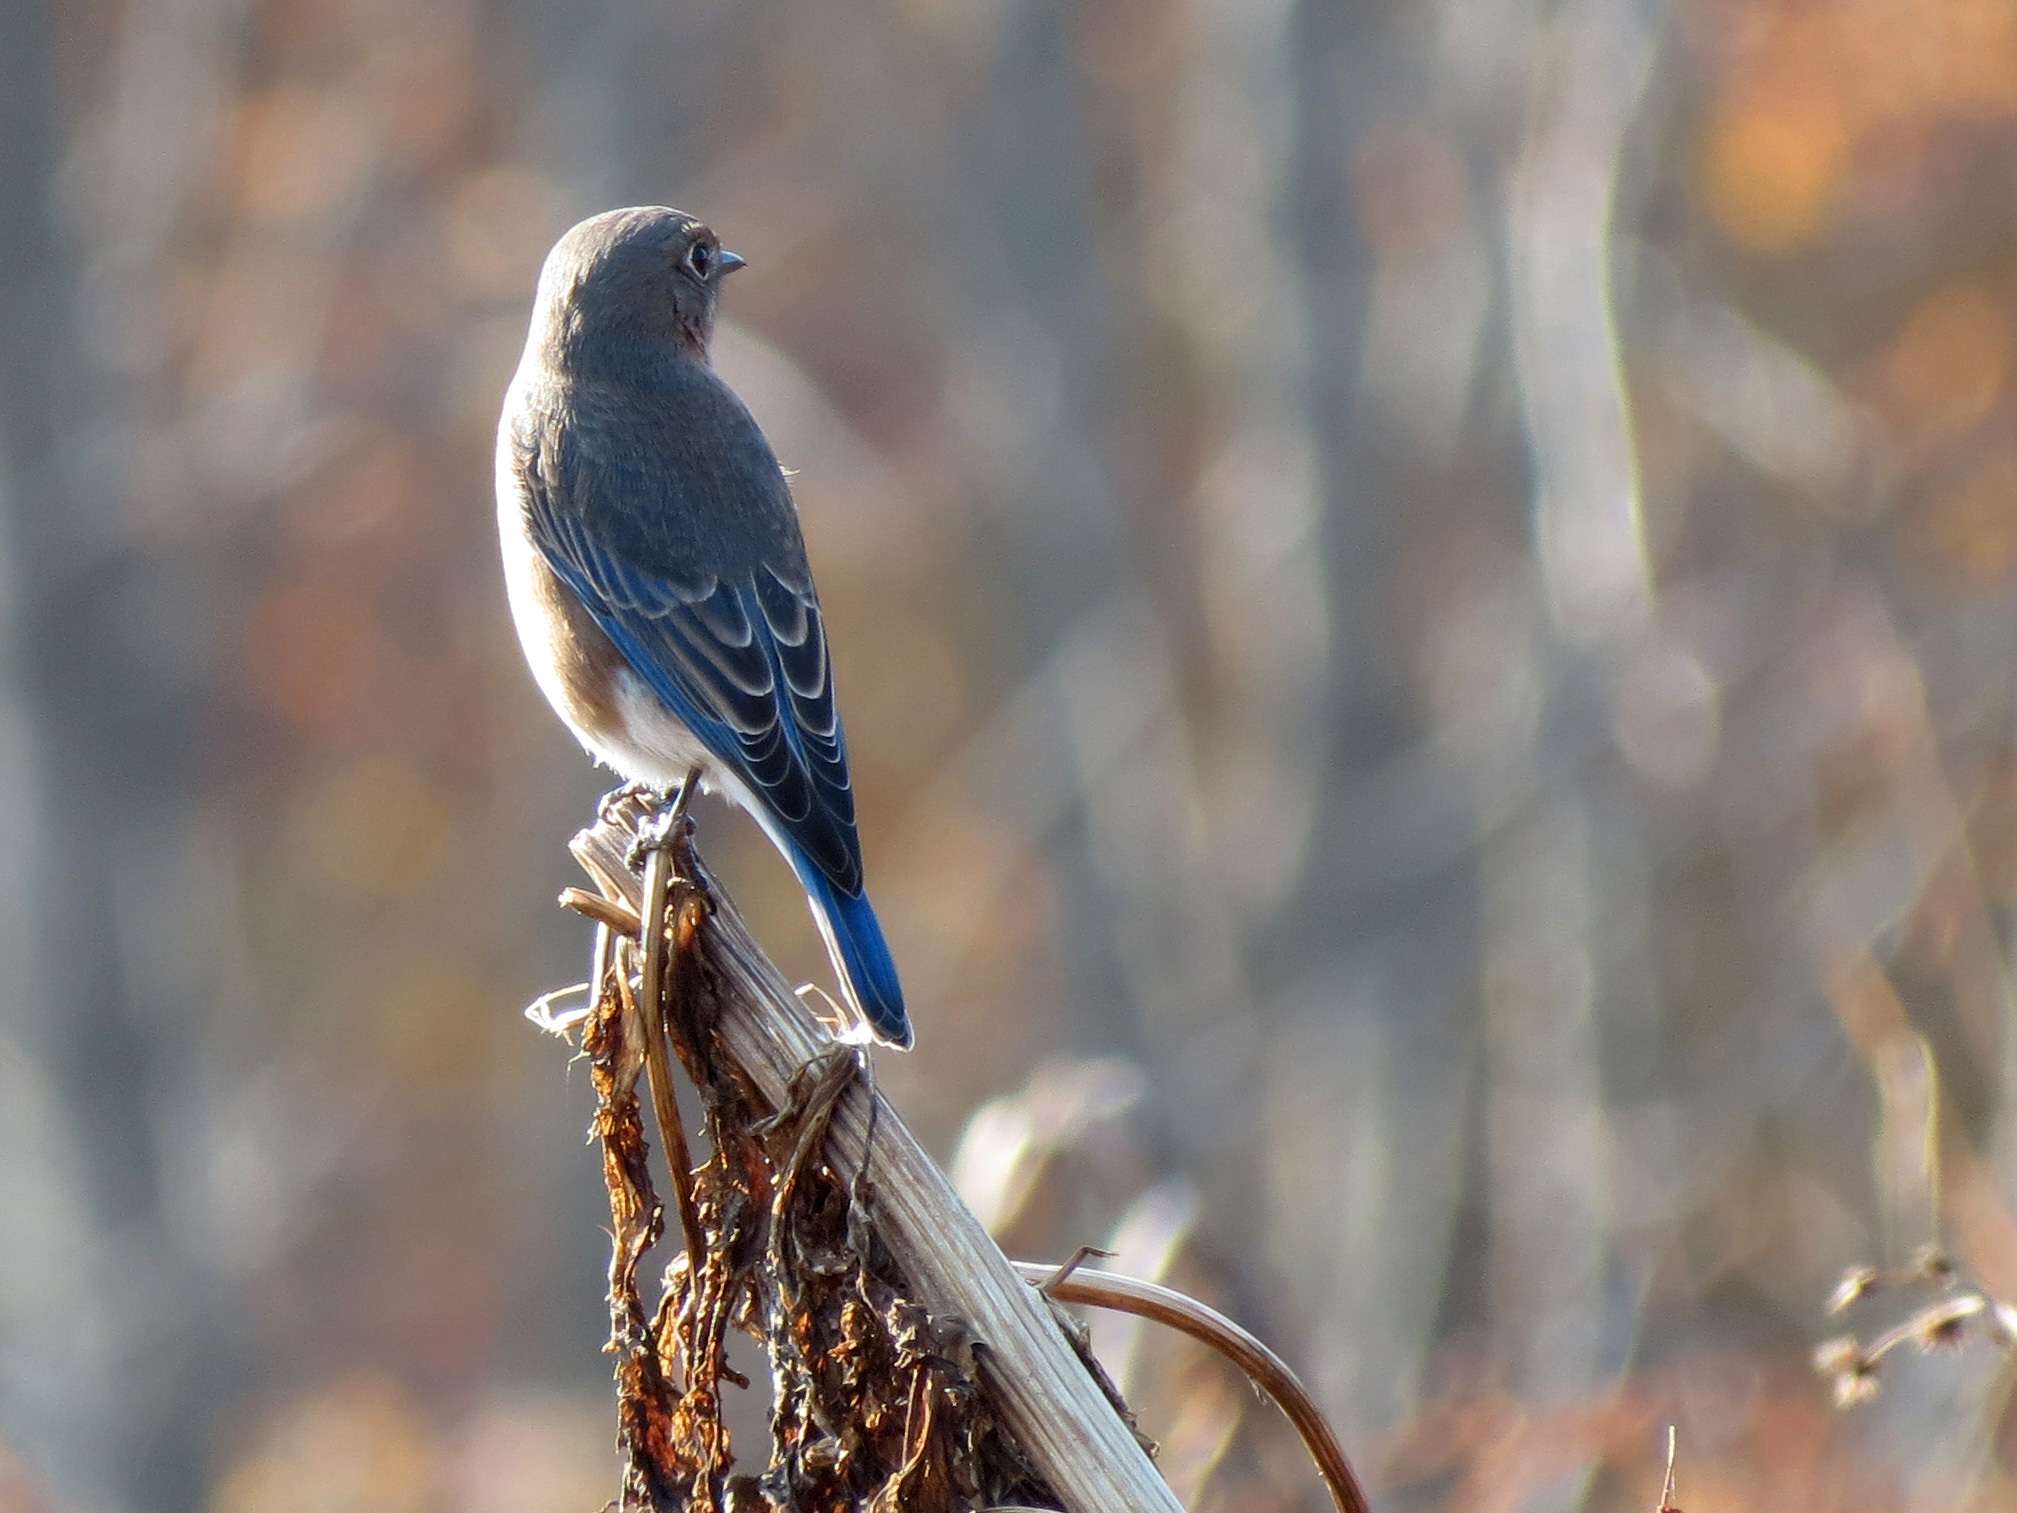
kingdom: Animalia
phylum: Chordata
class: Aves
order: Passeriformes
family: Turdidae
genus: Sialia
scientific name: Sialia sialis
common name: Eastern bluebird
